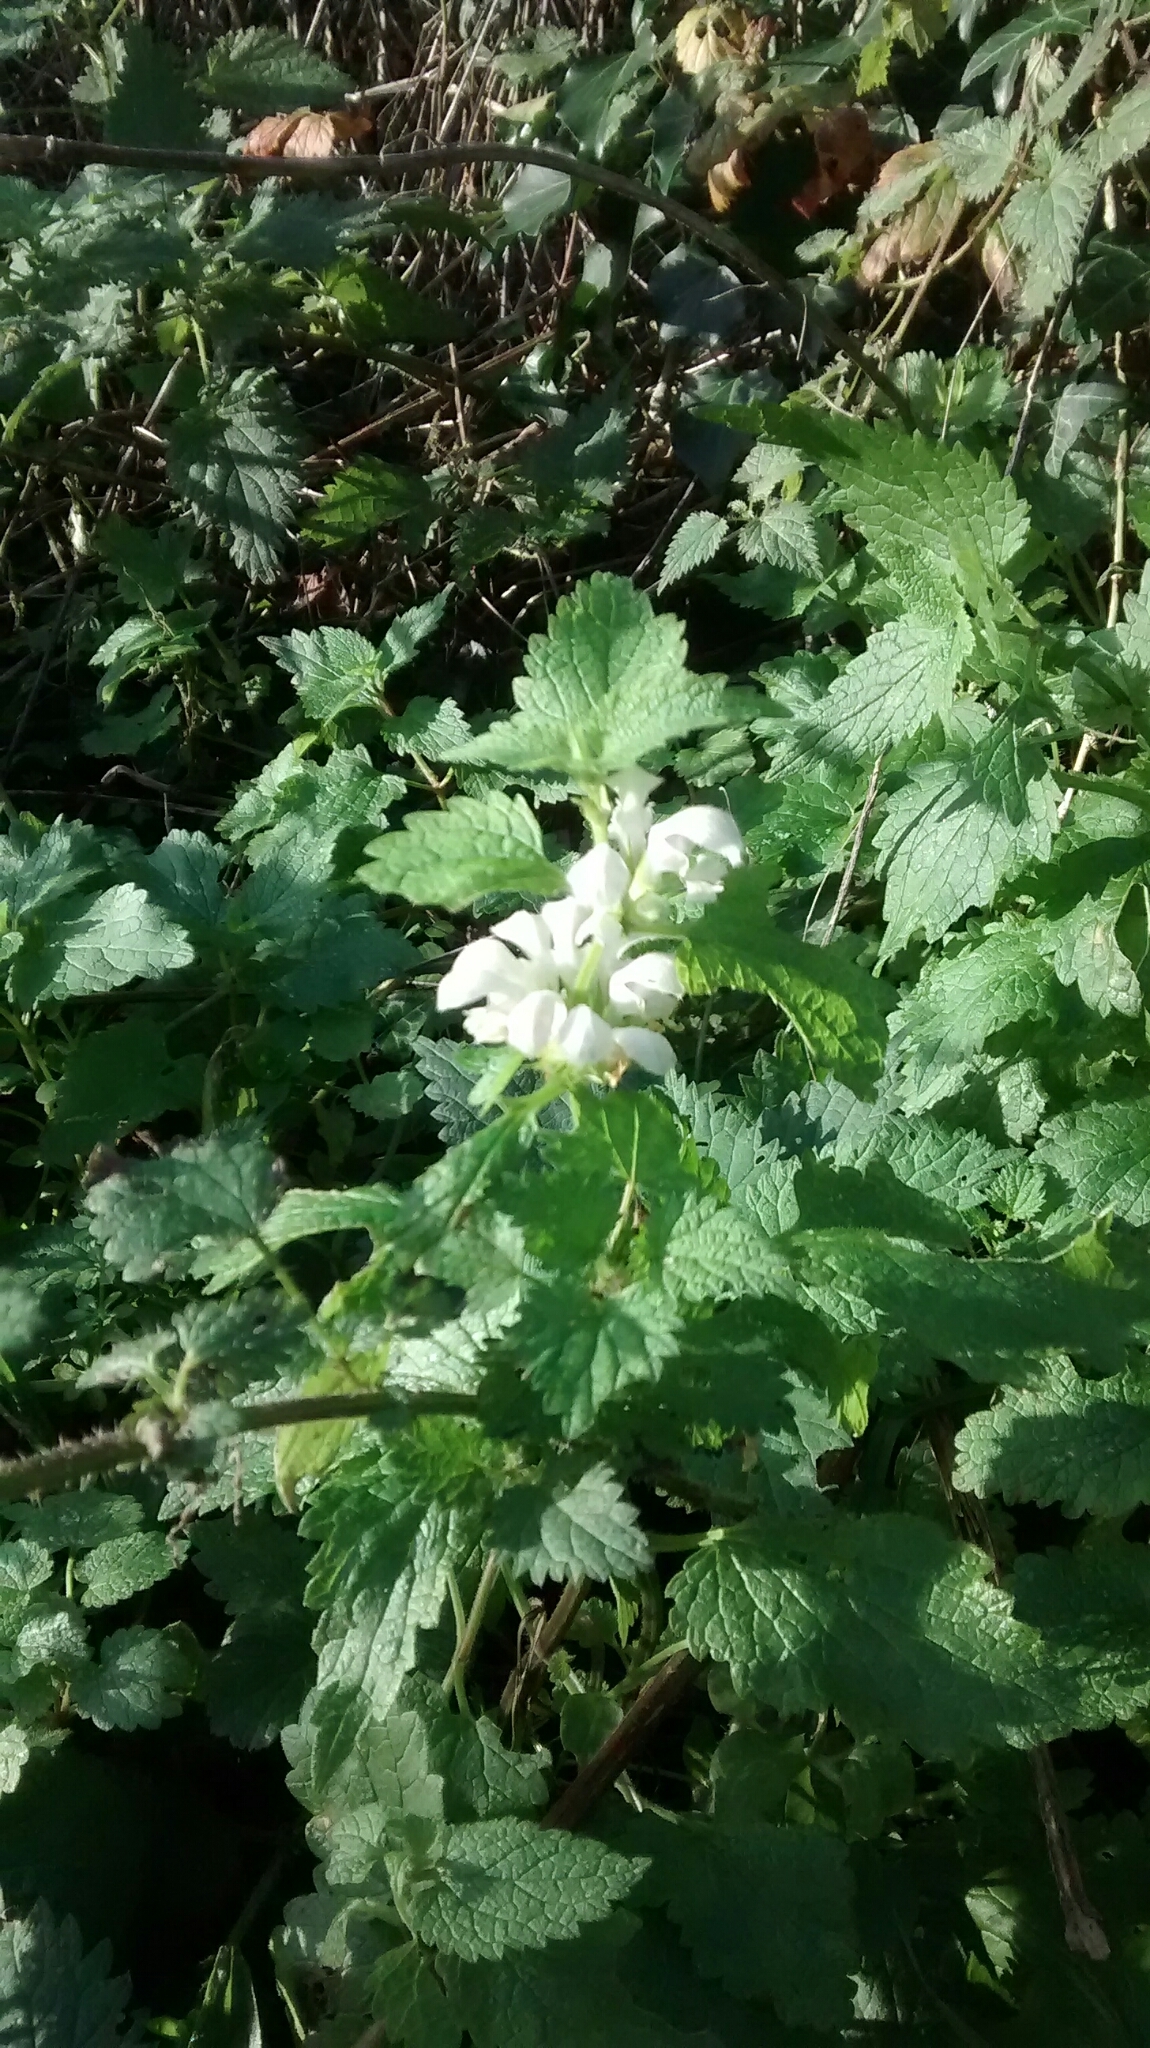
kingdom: Plantae
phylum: Tracheophyta
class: Magnoliopsida
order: Lamiales
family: Lamiaceae
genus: Lamium
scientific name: Lamium album
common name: White dead-nettle
